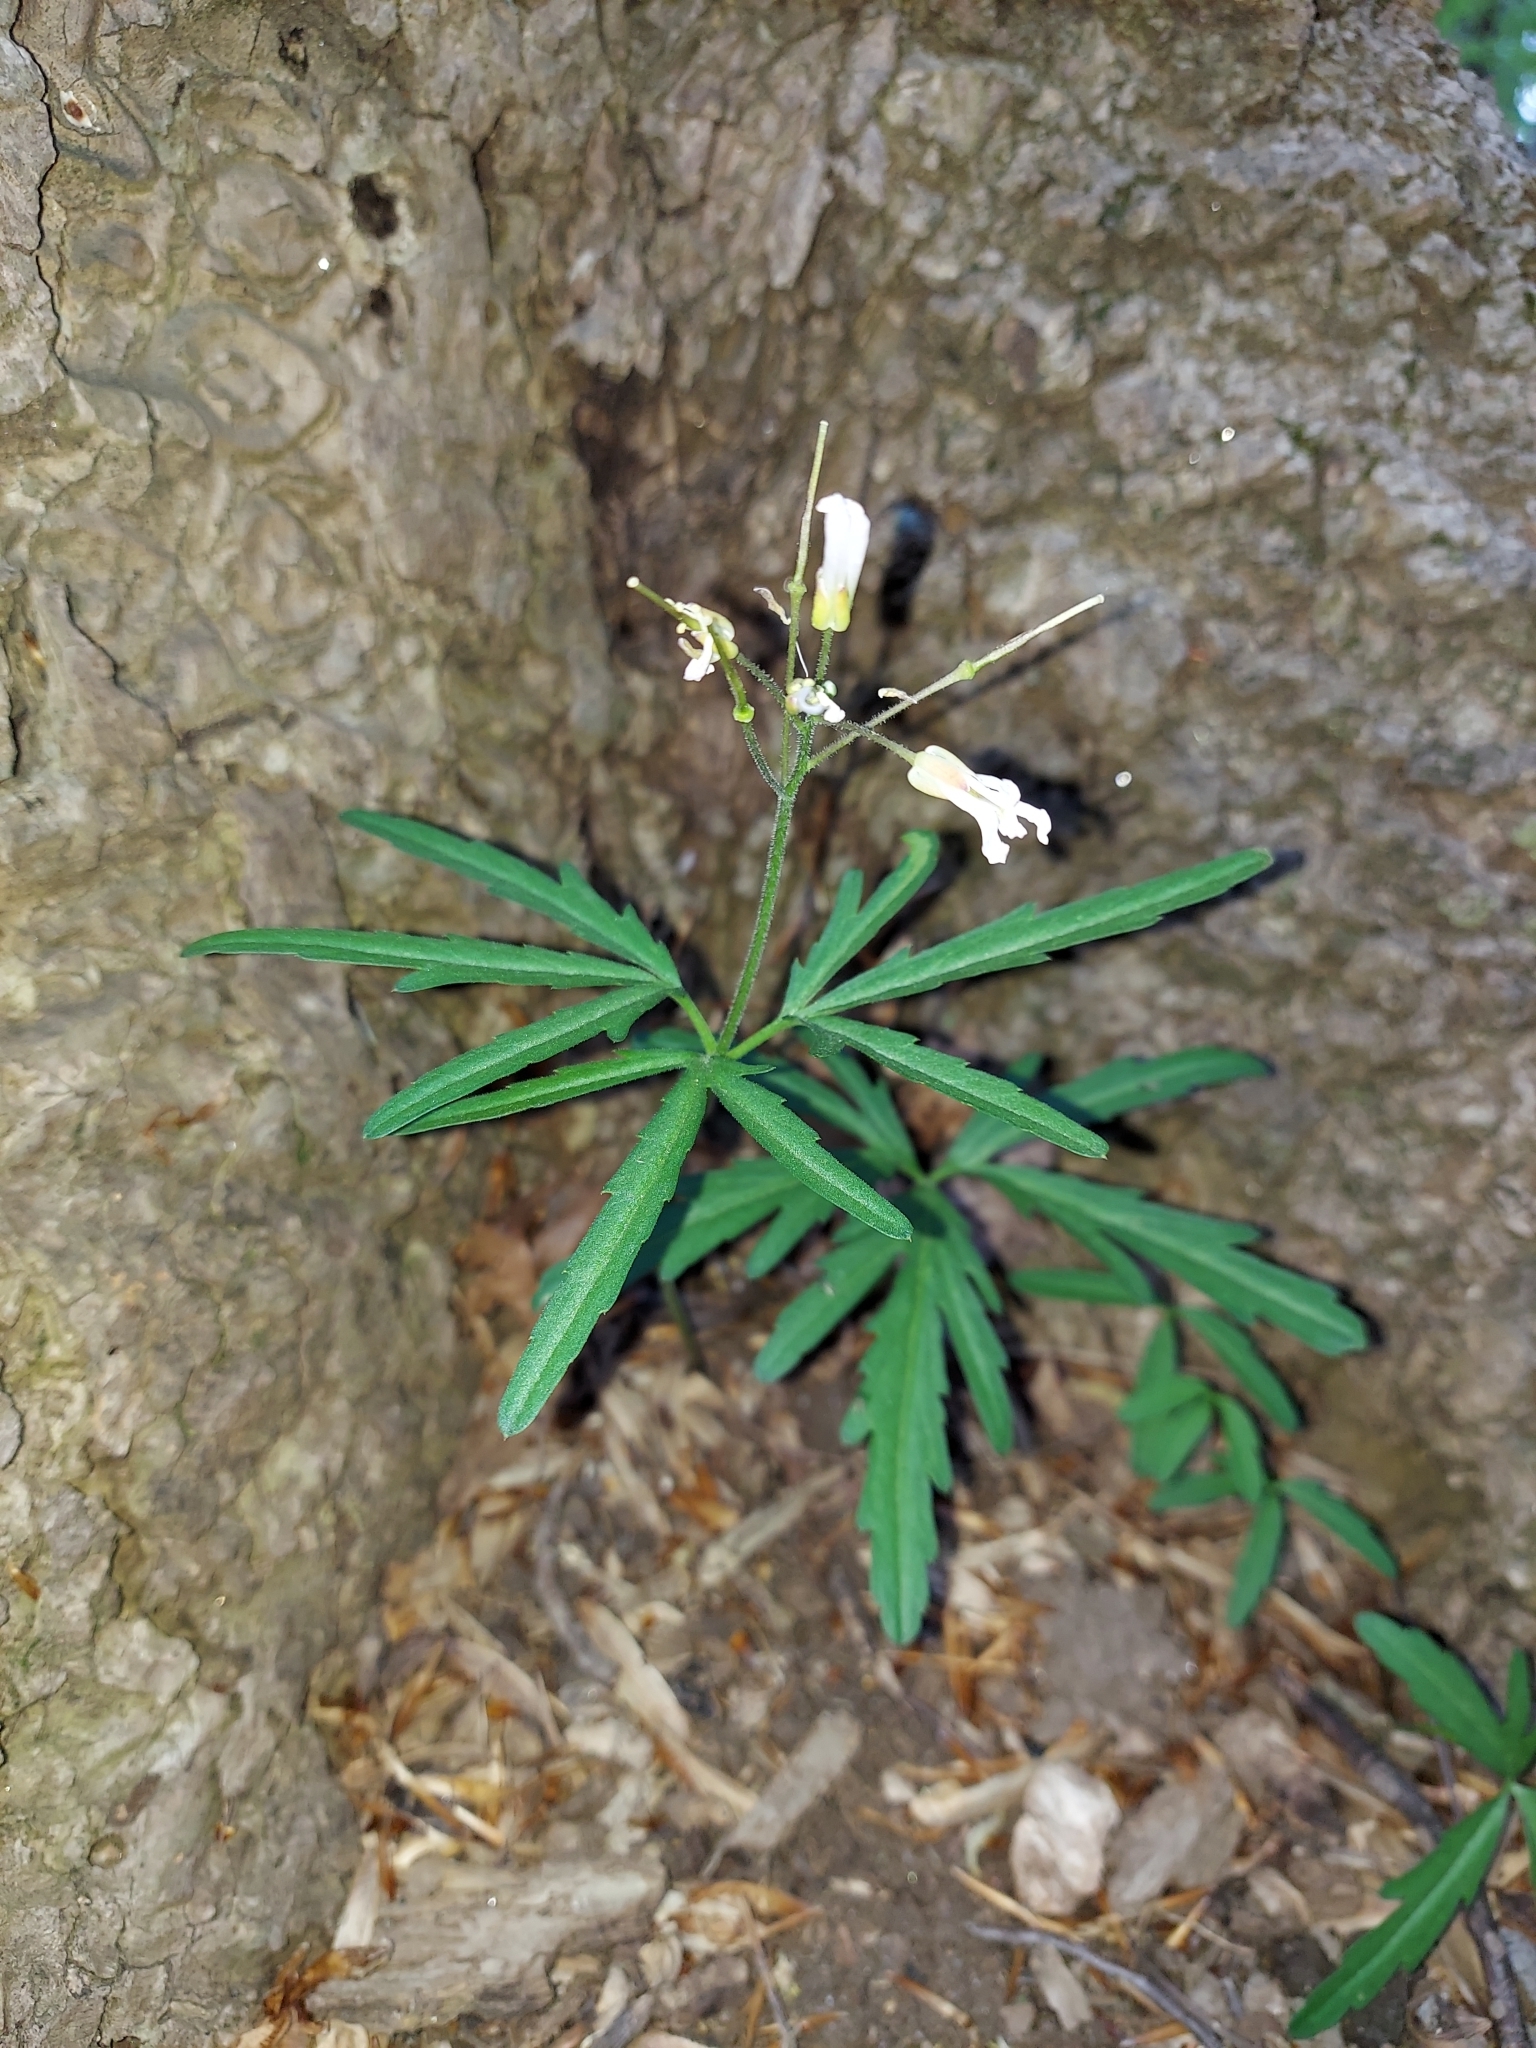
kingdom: Plantae
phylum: Tracheophyta
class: Magnoliopsida
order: Brassicales
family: Brassicaceae
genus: Cardamine
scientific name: Cardamine concatenata
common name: Cut-leaf toothcup
